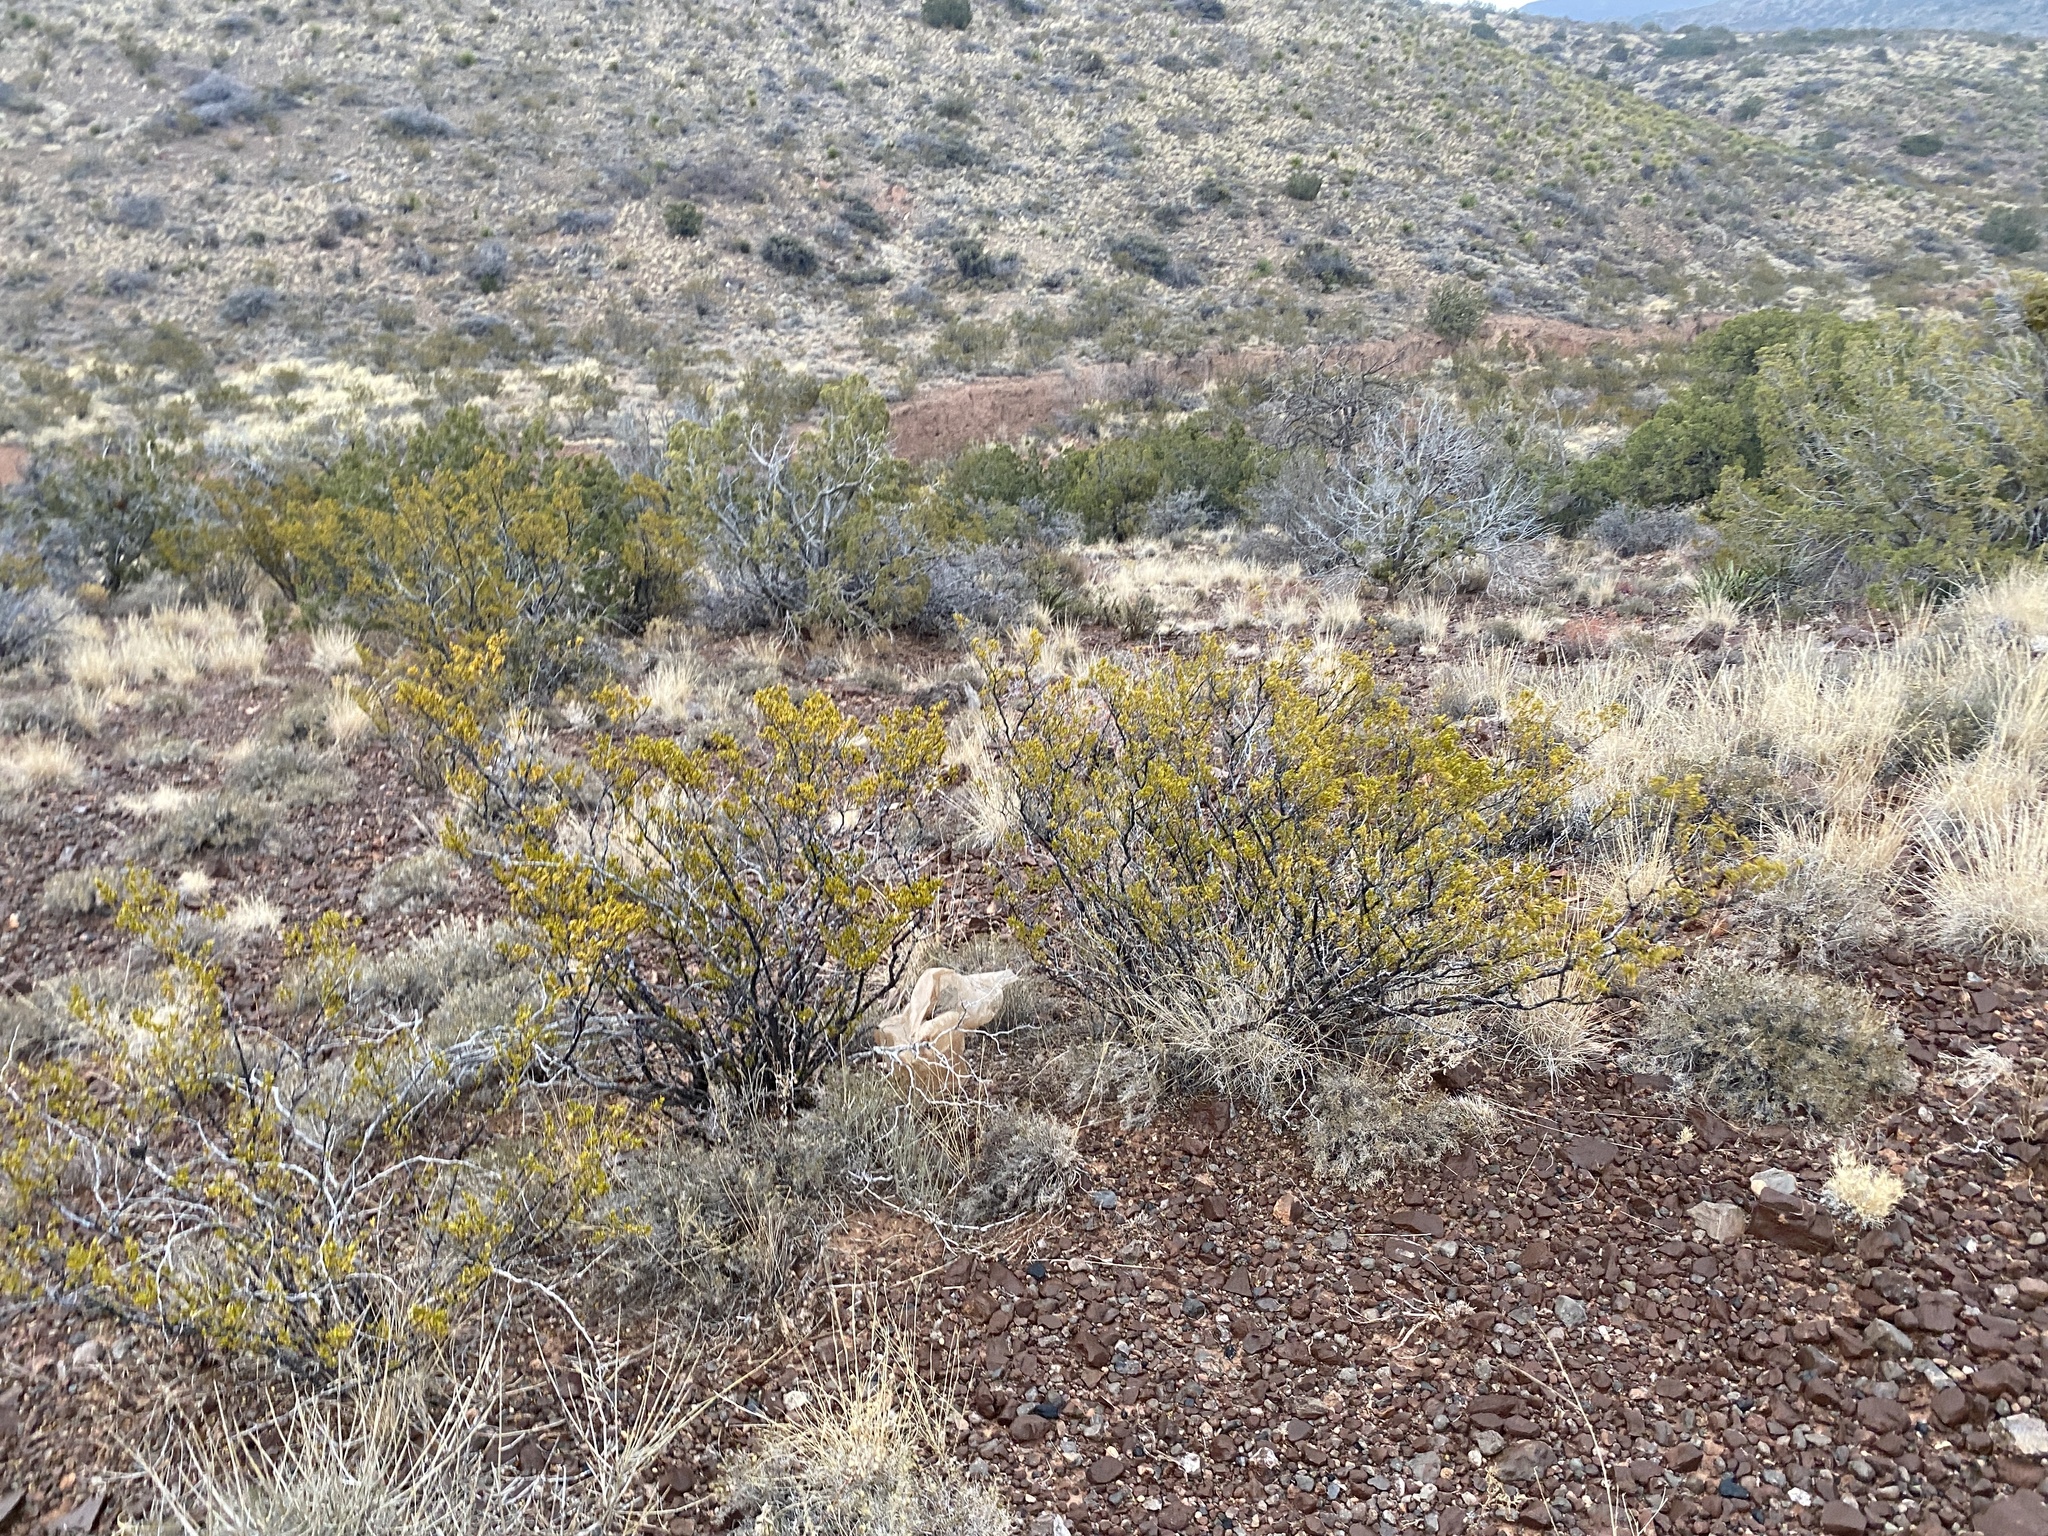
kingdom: Plantae
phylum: Tracheophyta
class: Magnoliopsida
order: Zygophyllales
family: Zygophyllaceae
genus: Larrea
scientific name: Larrea tridentata
